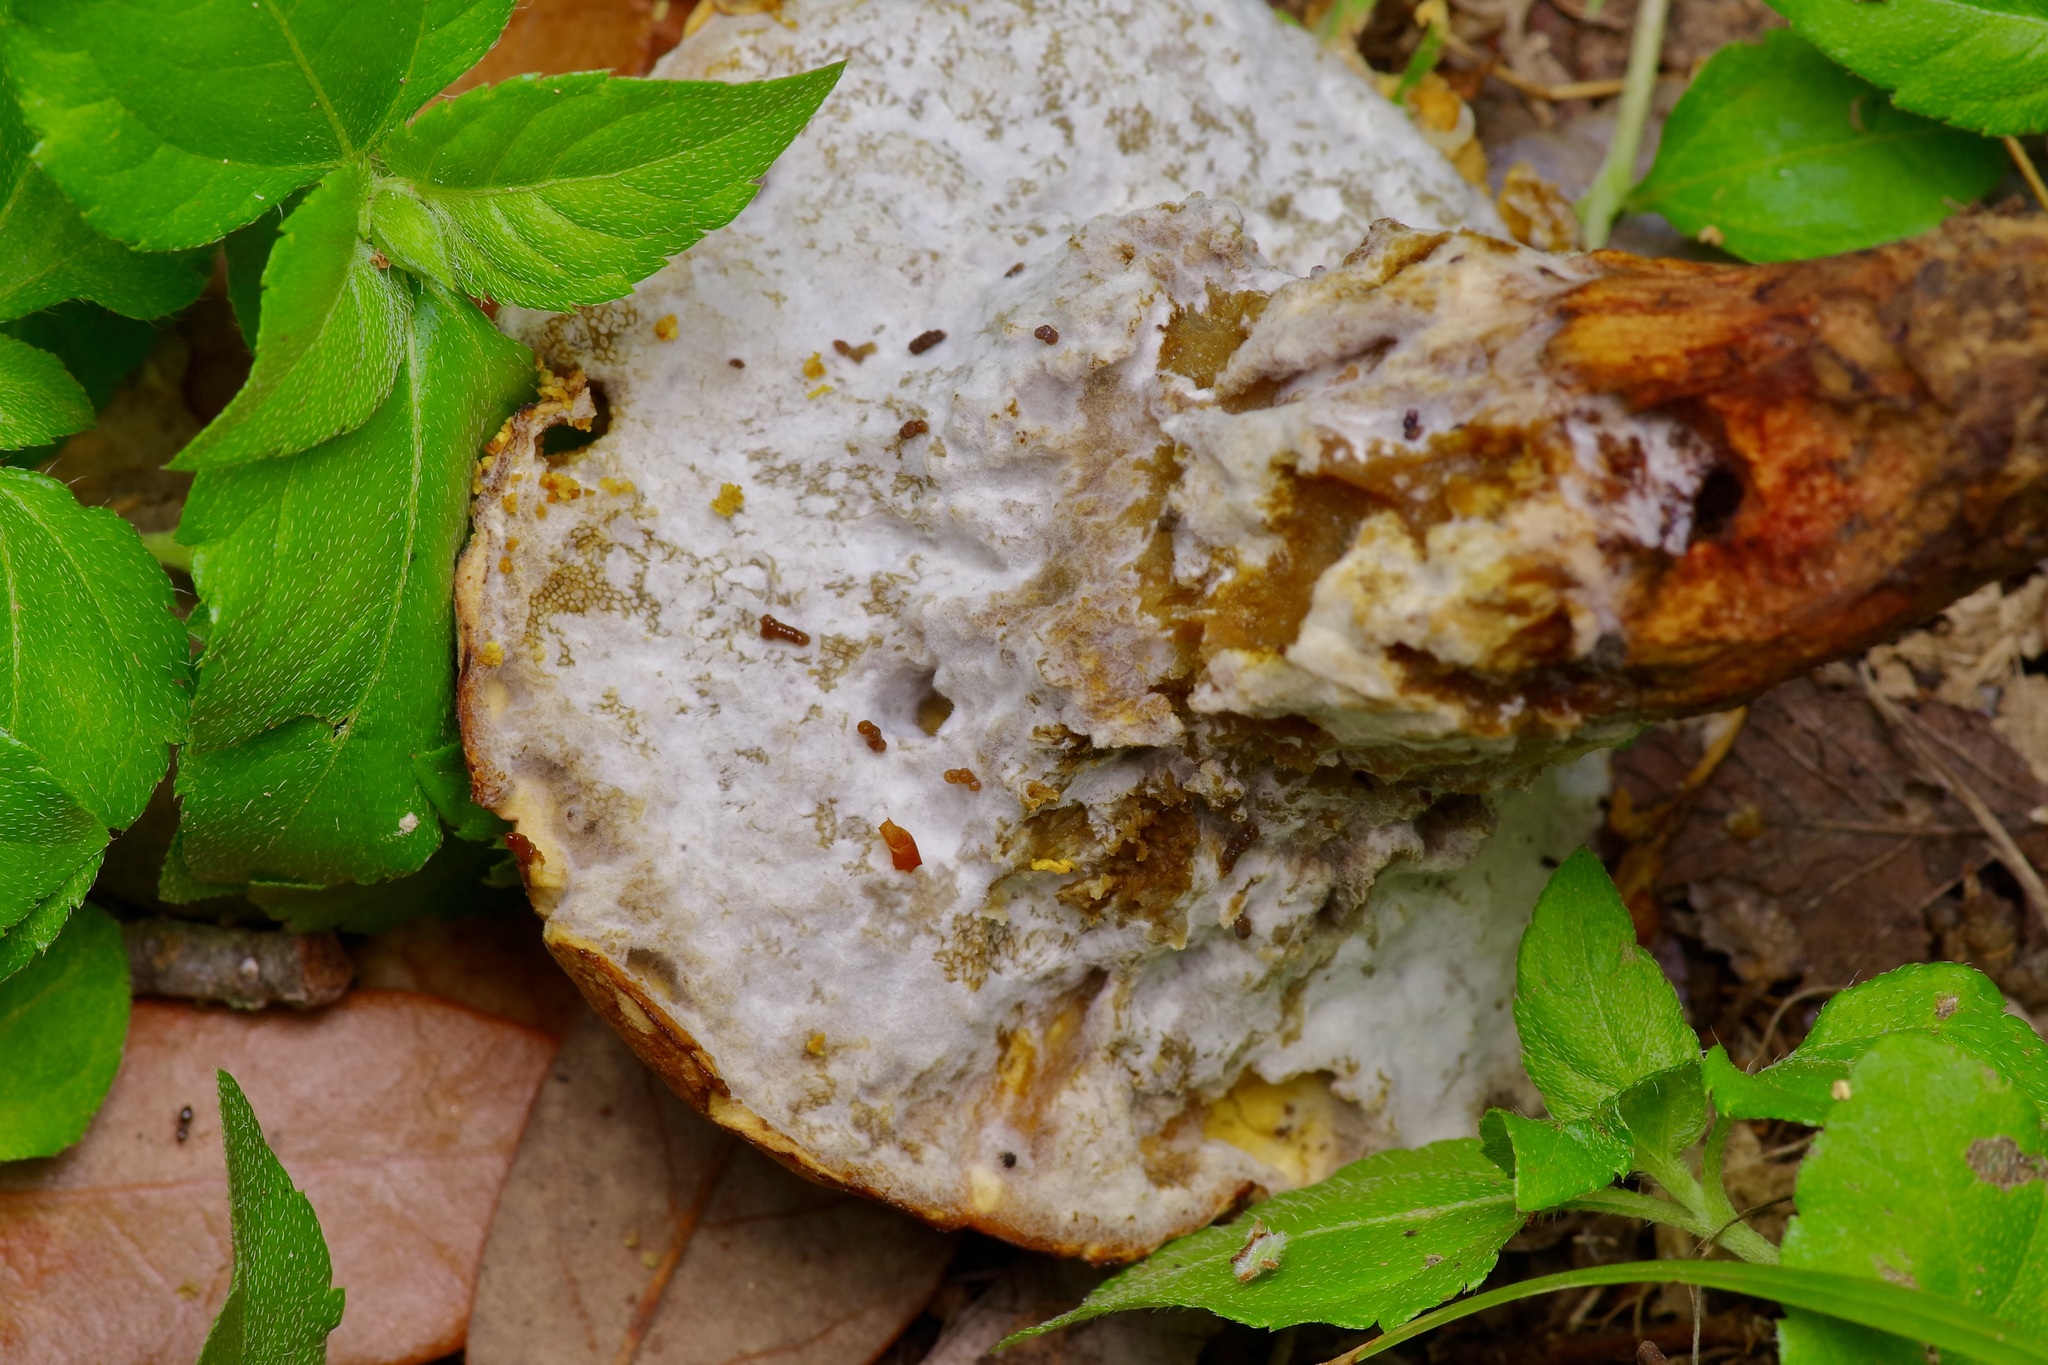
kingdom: Fungi
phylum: Ascomycota
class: Sordariomycetes
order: Hypocreales
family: Hypocreaceae
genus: Hypomyces
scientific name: Hypomyces chrysospermus
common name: Bolete mould
